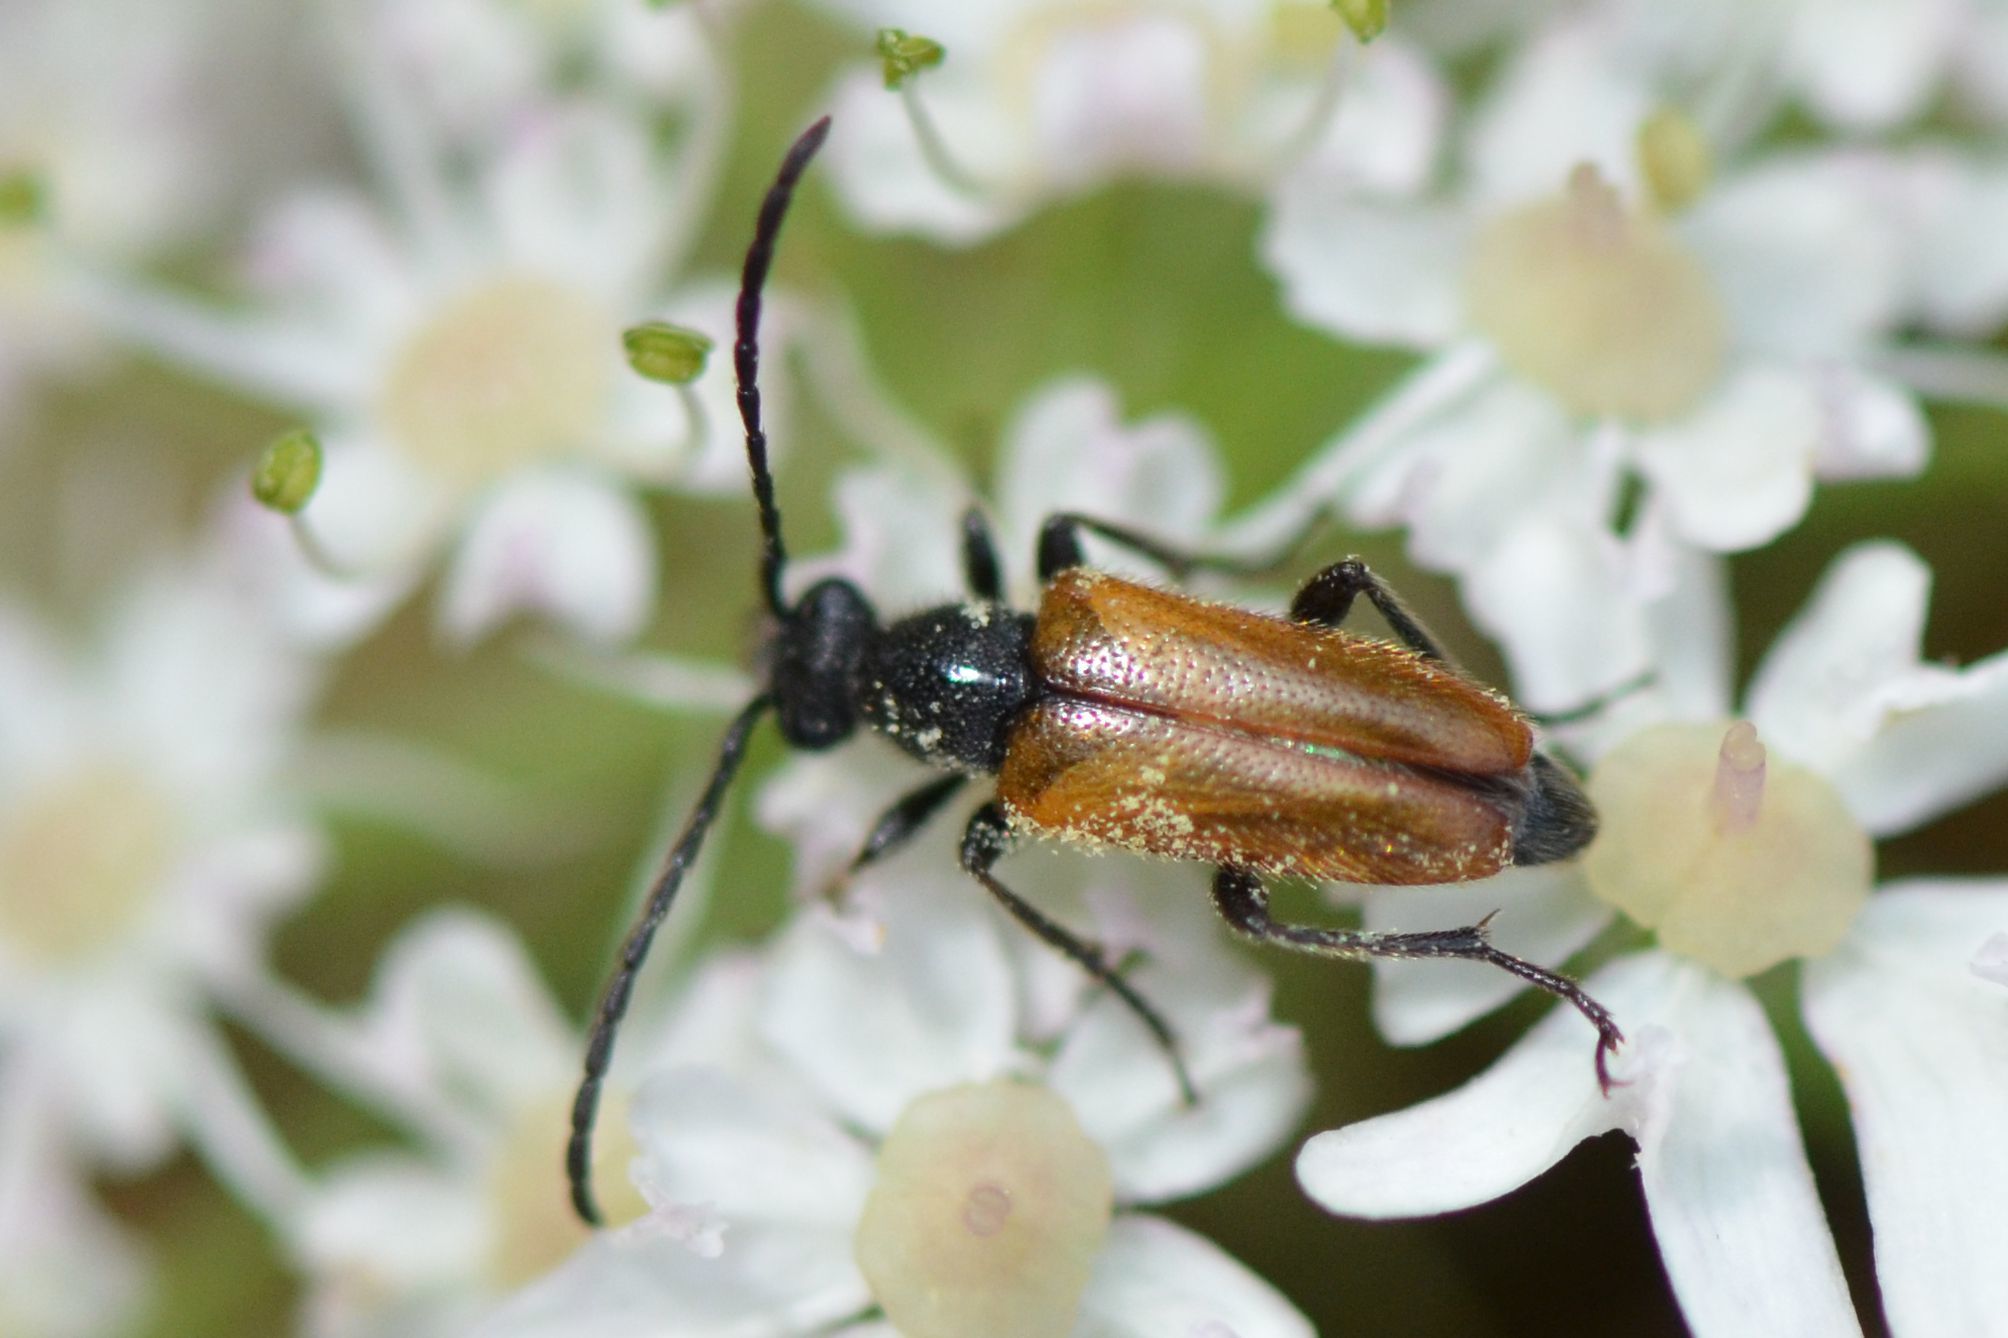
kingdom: Animalia
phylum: Arthropoda
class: Insecta
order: Coleoptera
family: Cerambycidae
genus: Pseudovadonia
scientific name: Pseudovadonia livida
